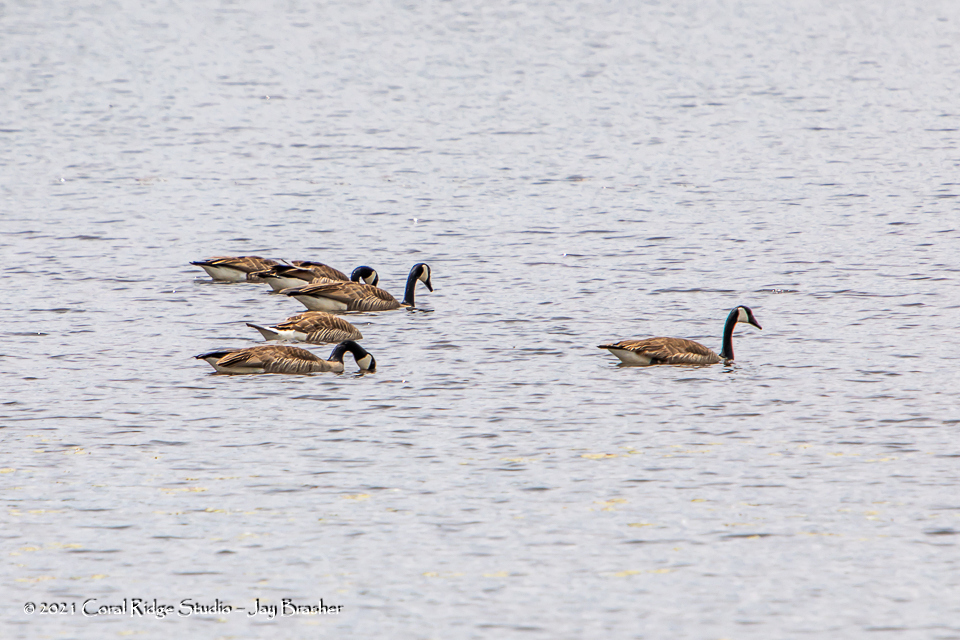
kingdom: Animalia
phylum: Chordata
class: Aves
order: Anseriformes
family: Anatidae
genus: Branta
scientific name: Branta canadensis
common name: Canada goose
